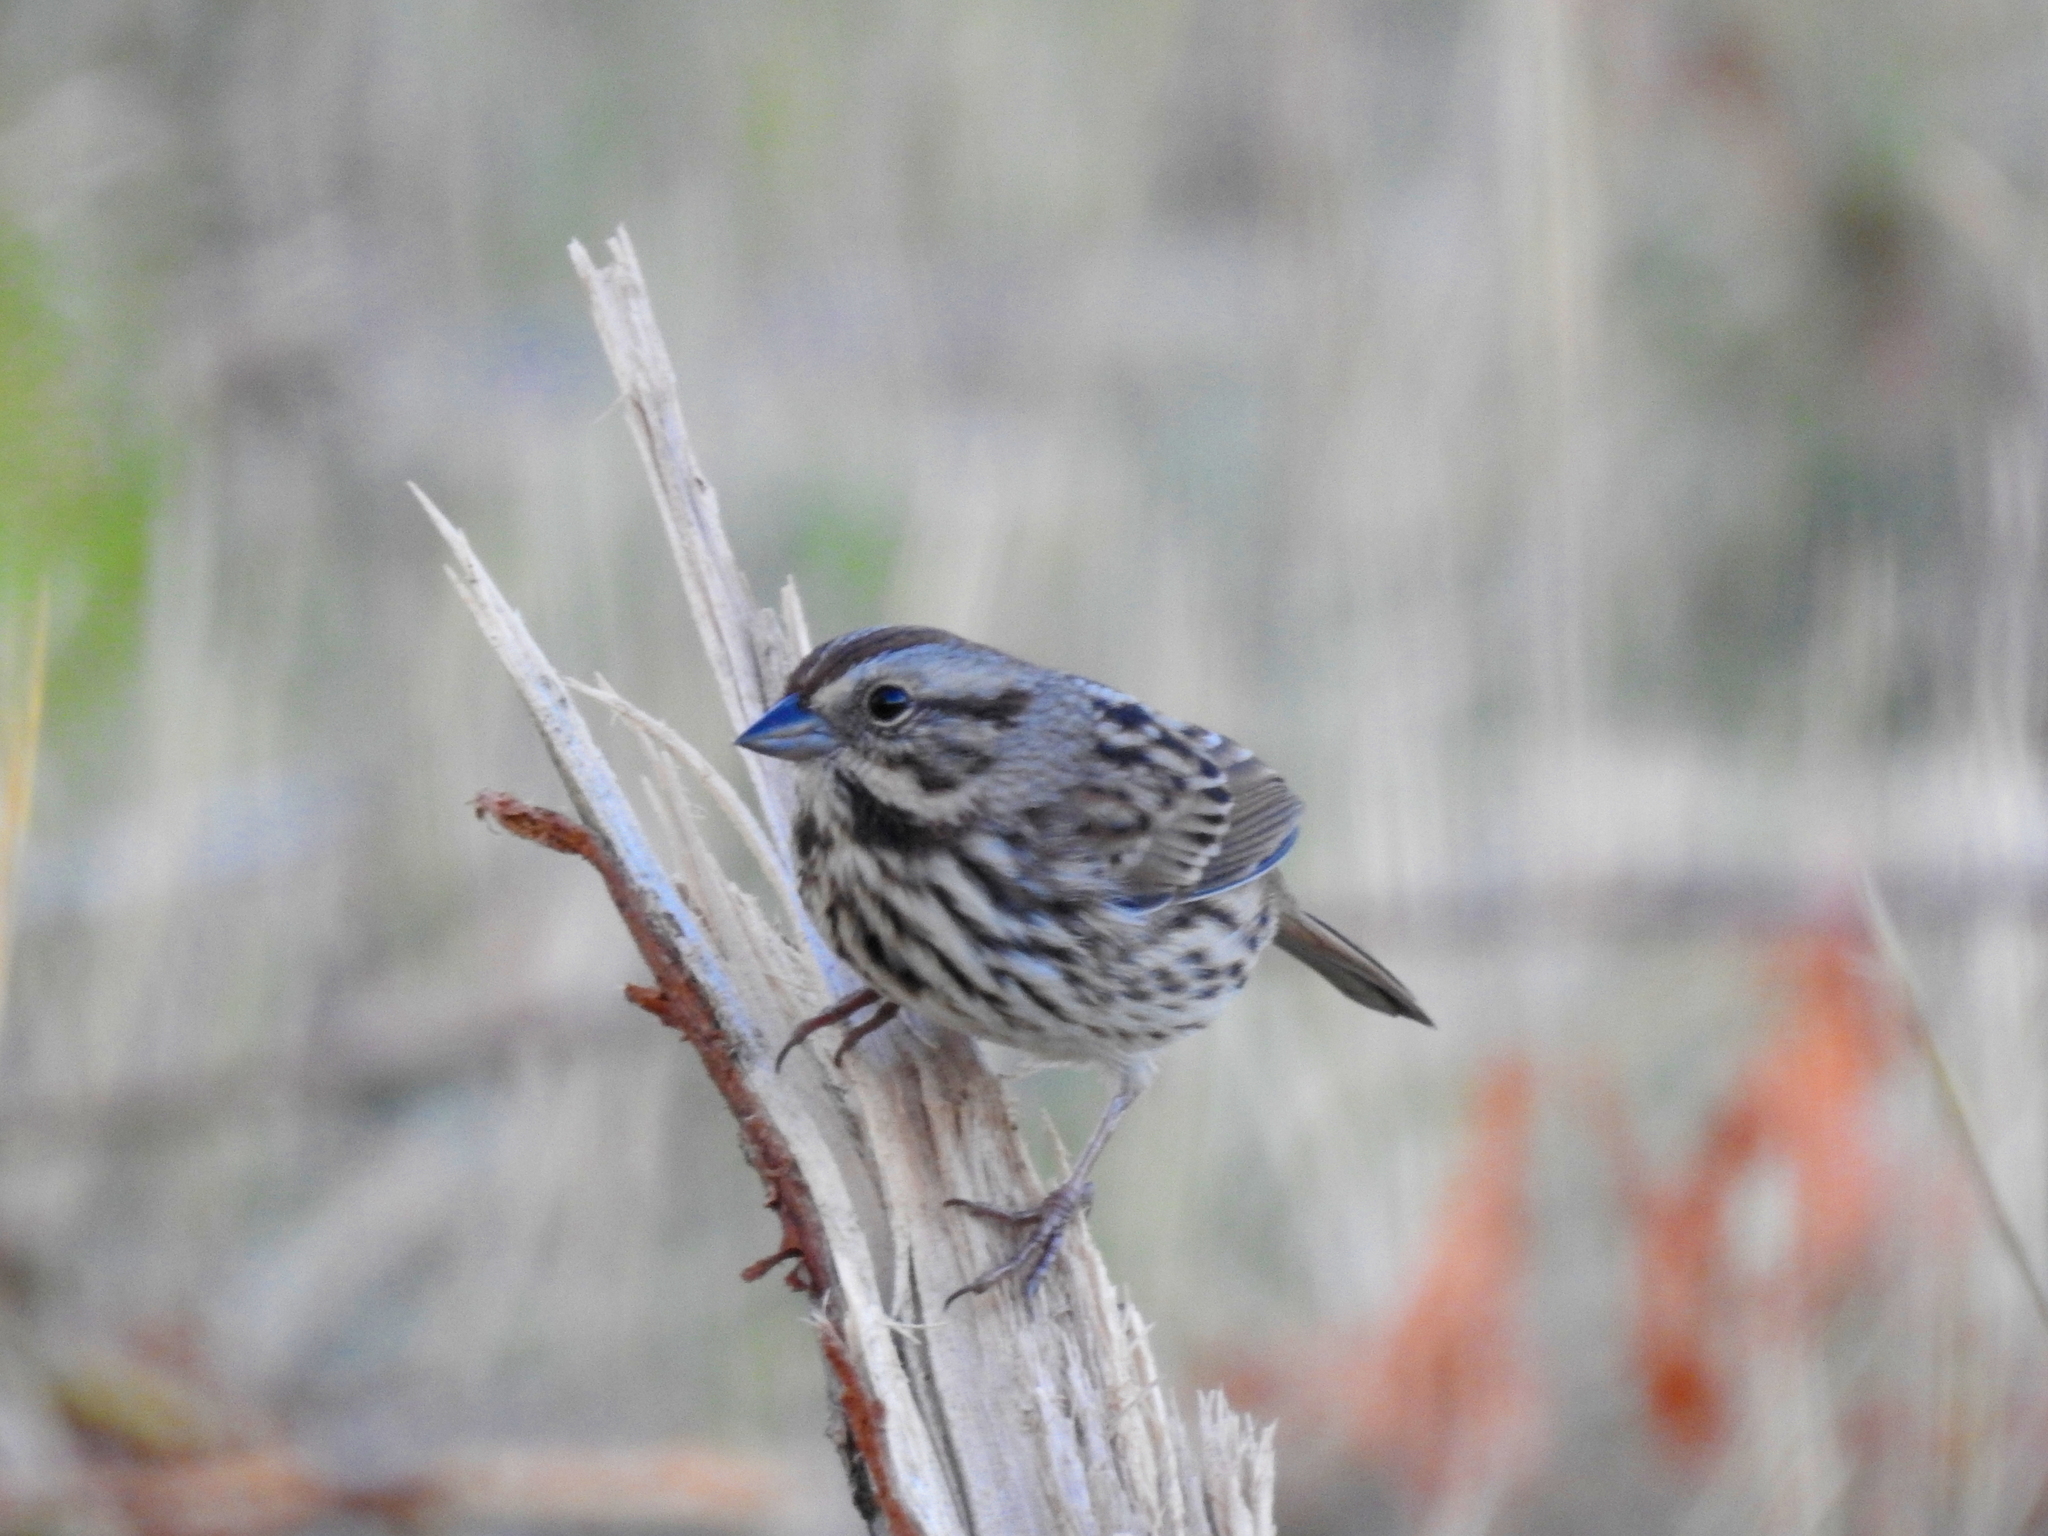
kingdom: Animalia
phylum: Chordata
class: Aves
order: Passeriformes
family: Passerellidae
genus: Melospiza
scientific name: Melospiza melodia
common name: Song sparrow
